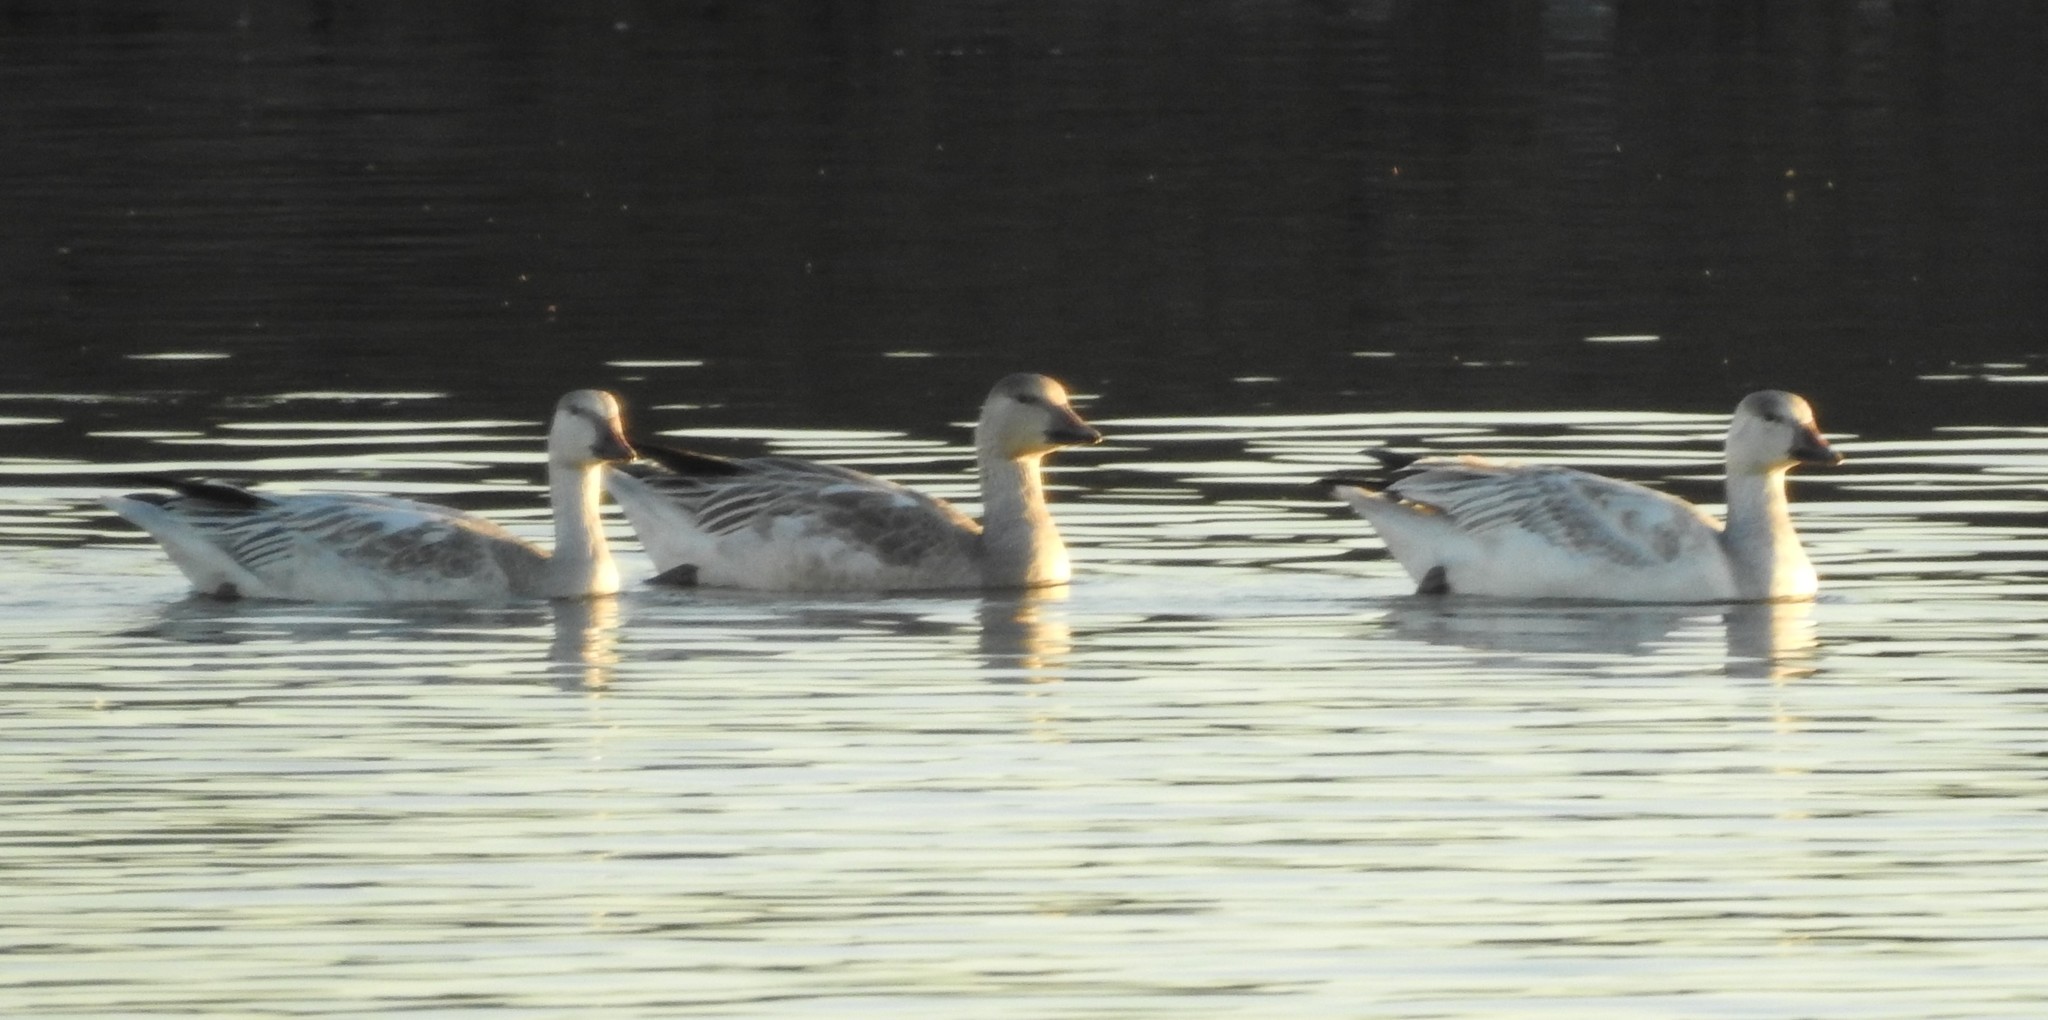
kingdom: Animalia
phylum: Chordata
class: Aves
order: Anseriformes
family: Anatidae
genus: Anser
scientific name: Anser caerulescens
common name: Snow goose
